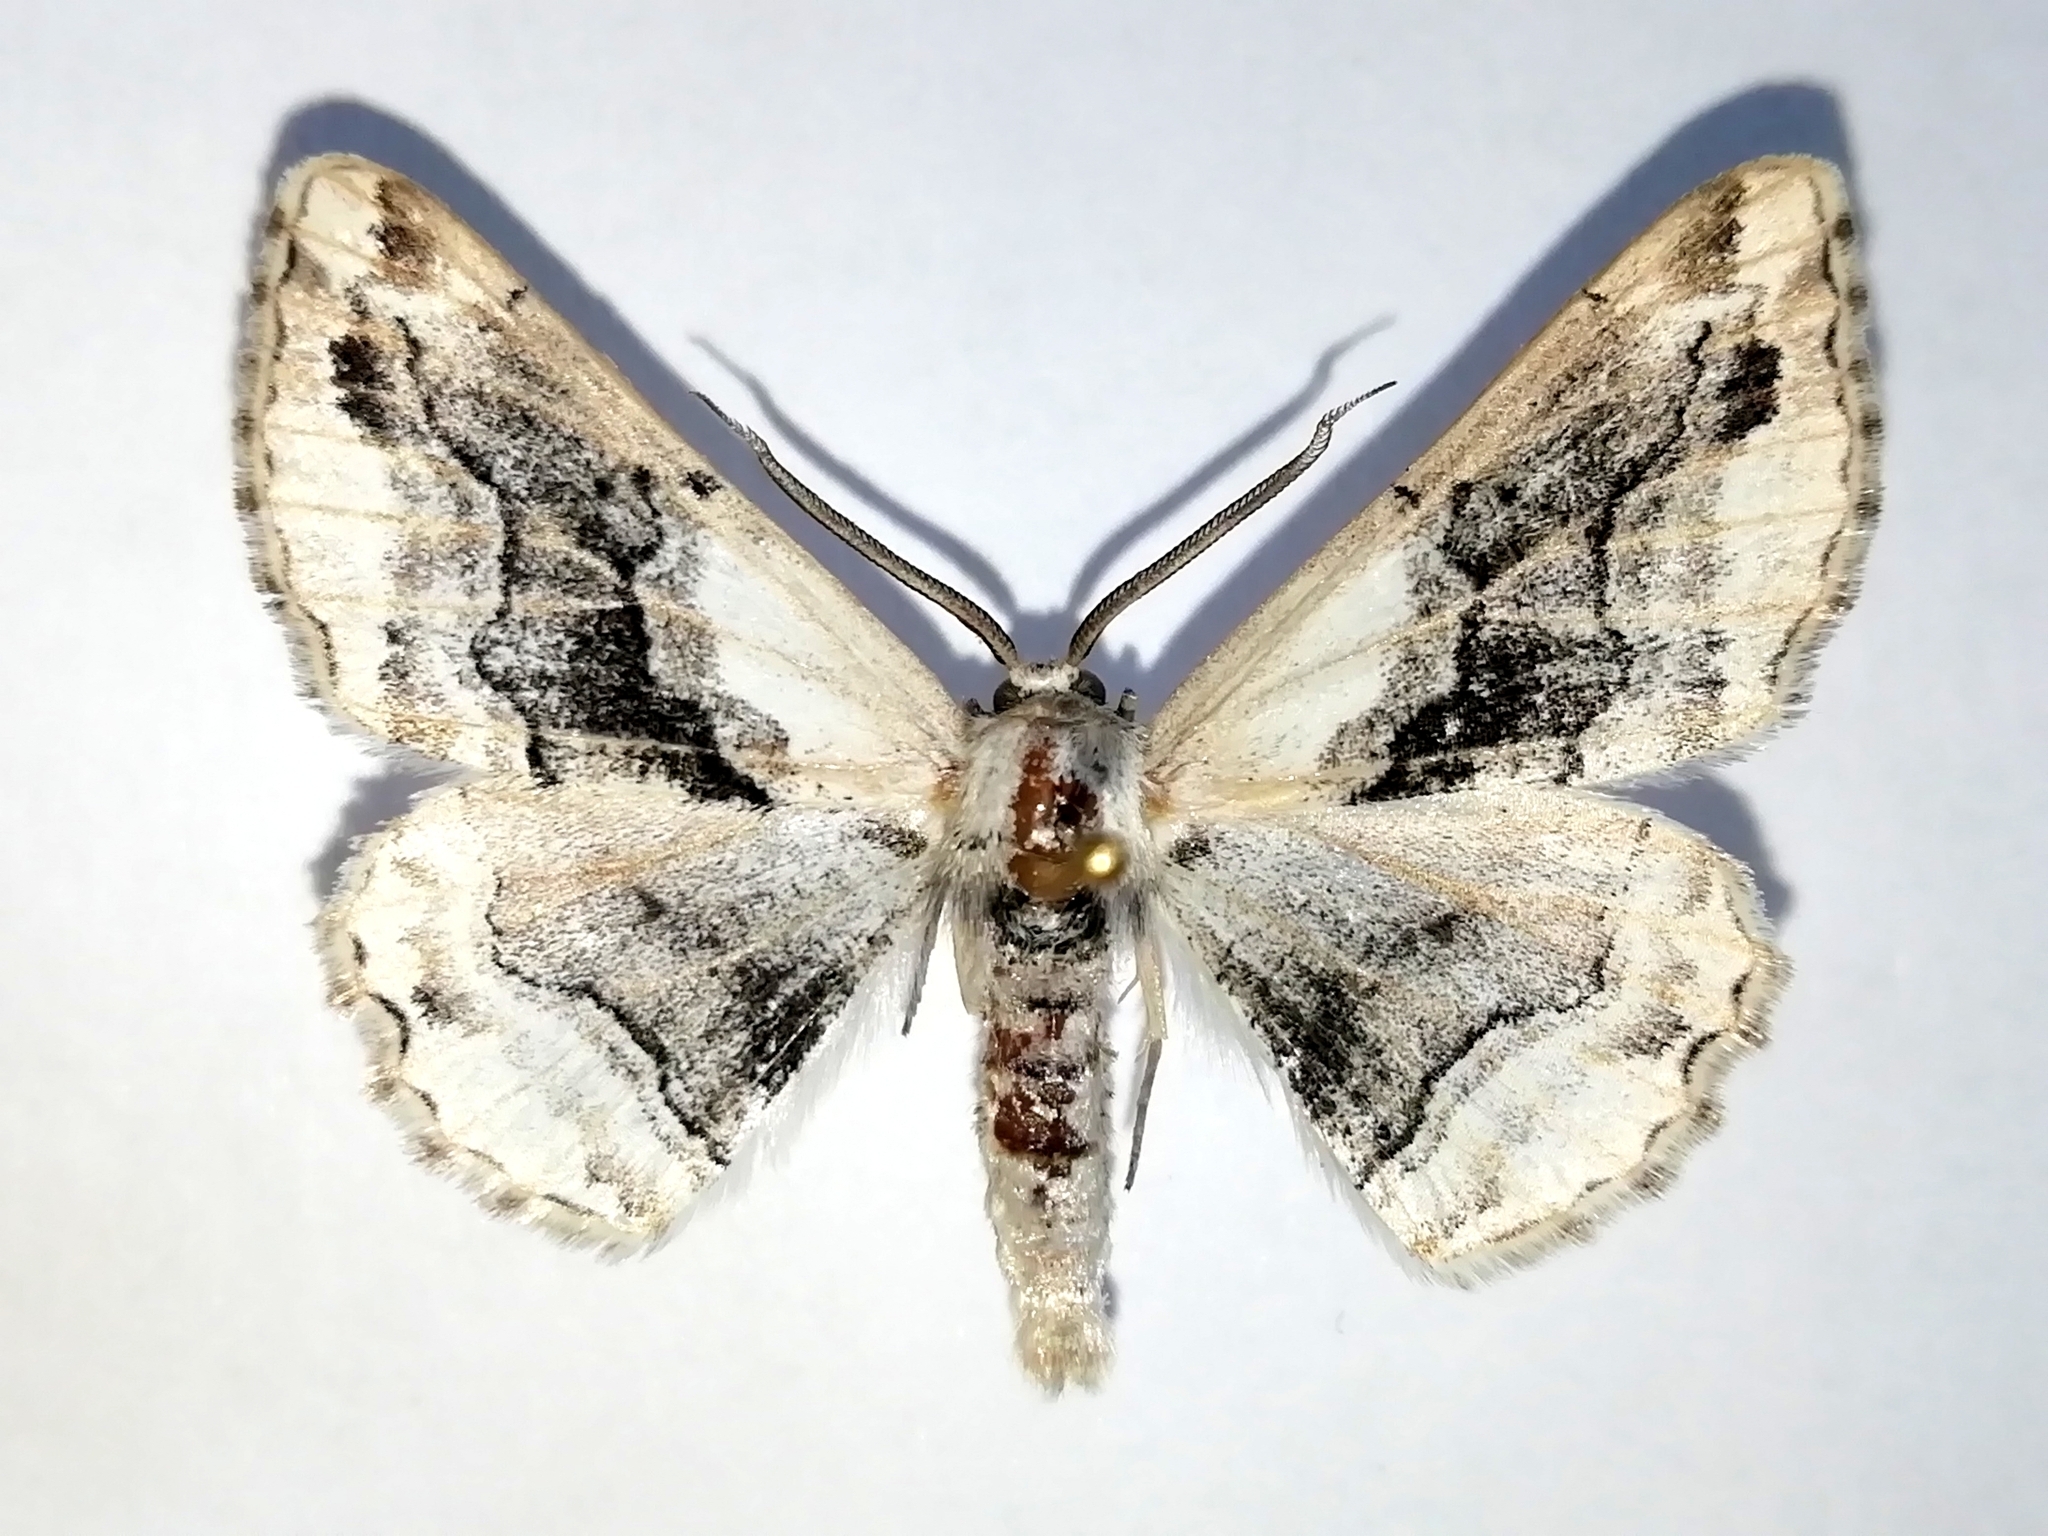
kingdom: Animalia
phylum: Arthropoda
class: Insecta
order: Lepidoptera
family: Geometridae
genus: Synopsia
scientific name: Synopsia sociaria
